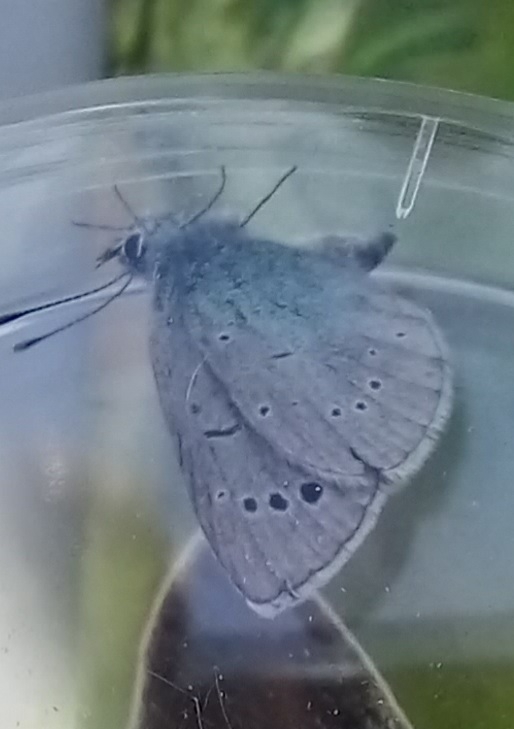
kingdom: Animalia
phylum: Arthropoda
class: Insecta
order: Lepidoptera
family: Lycaenidae
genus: Glaucopsyche
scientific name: Glaucopsyche alexis
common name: Green-underside blue
